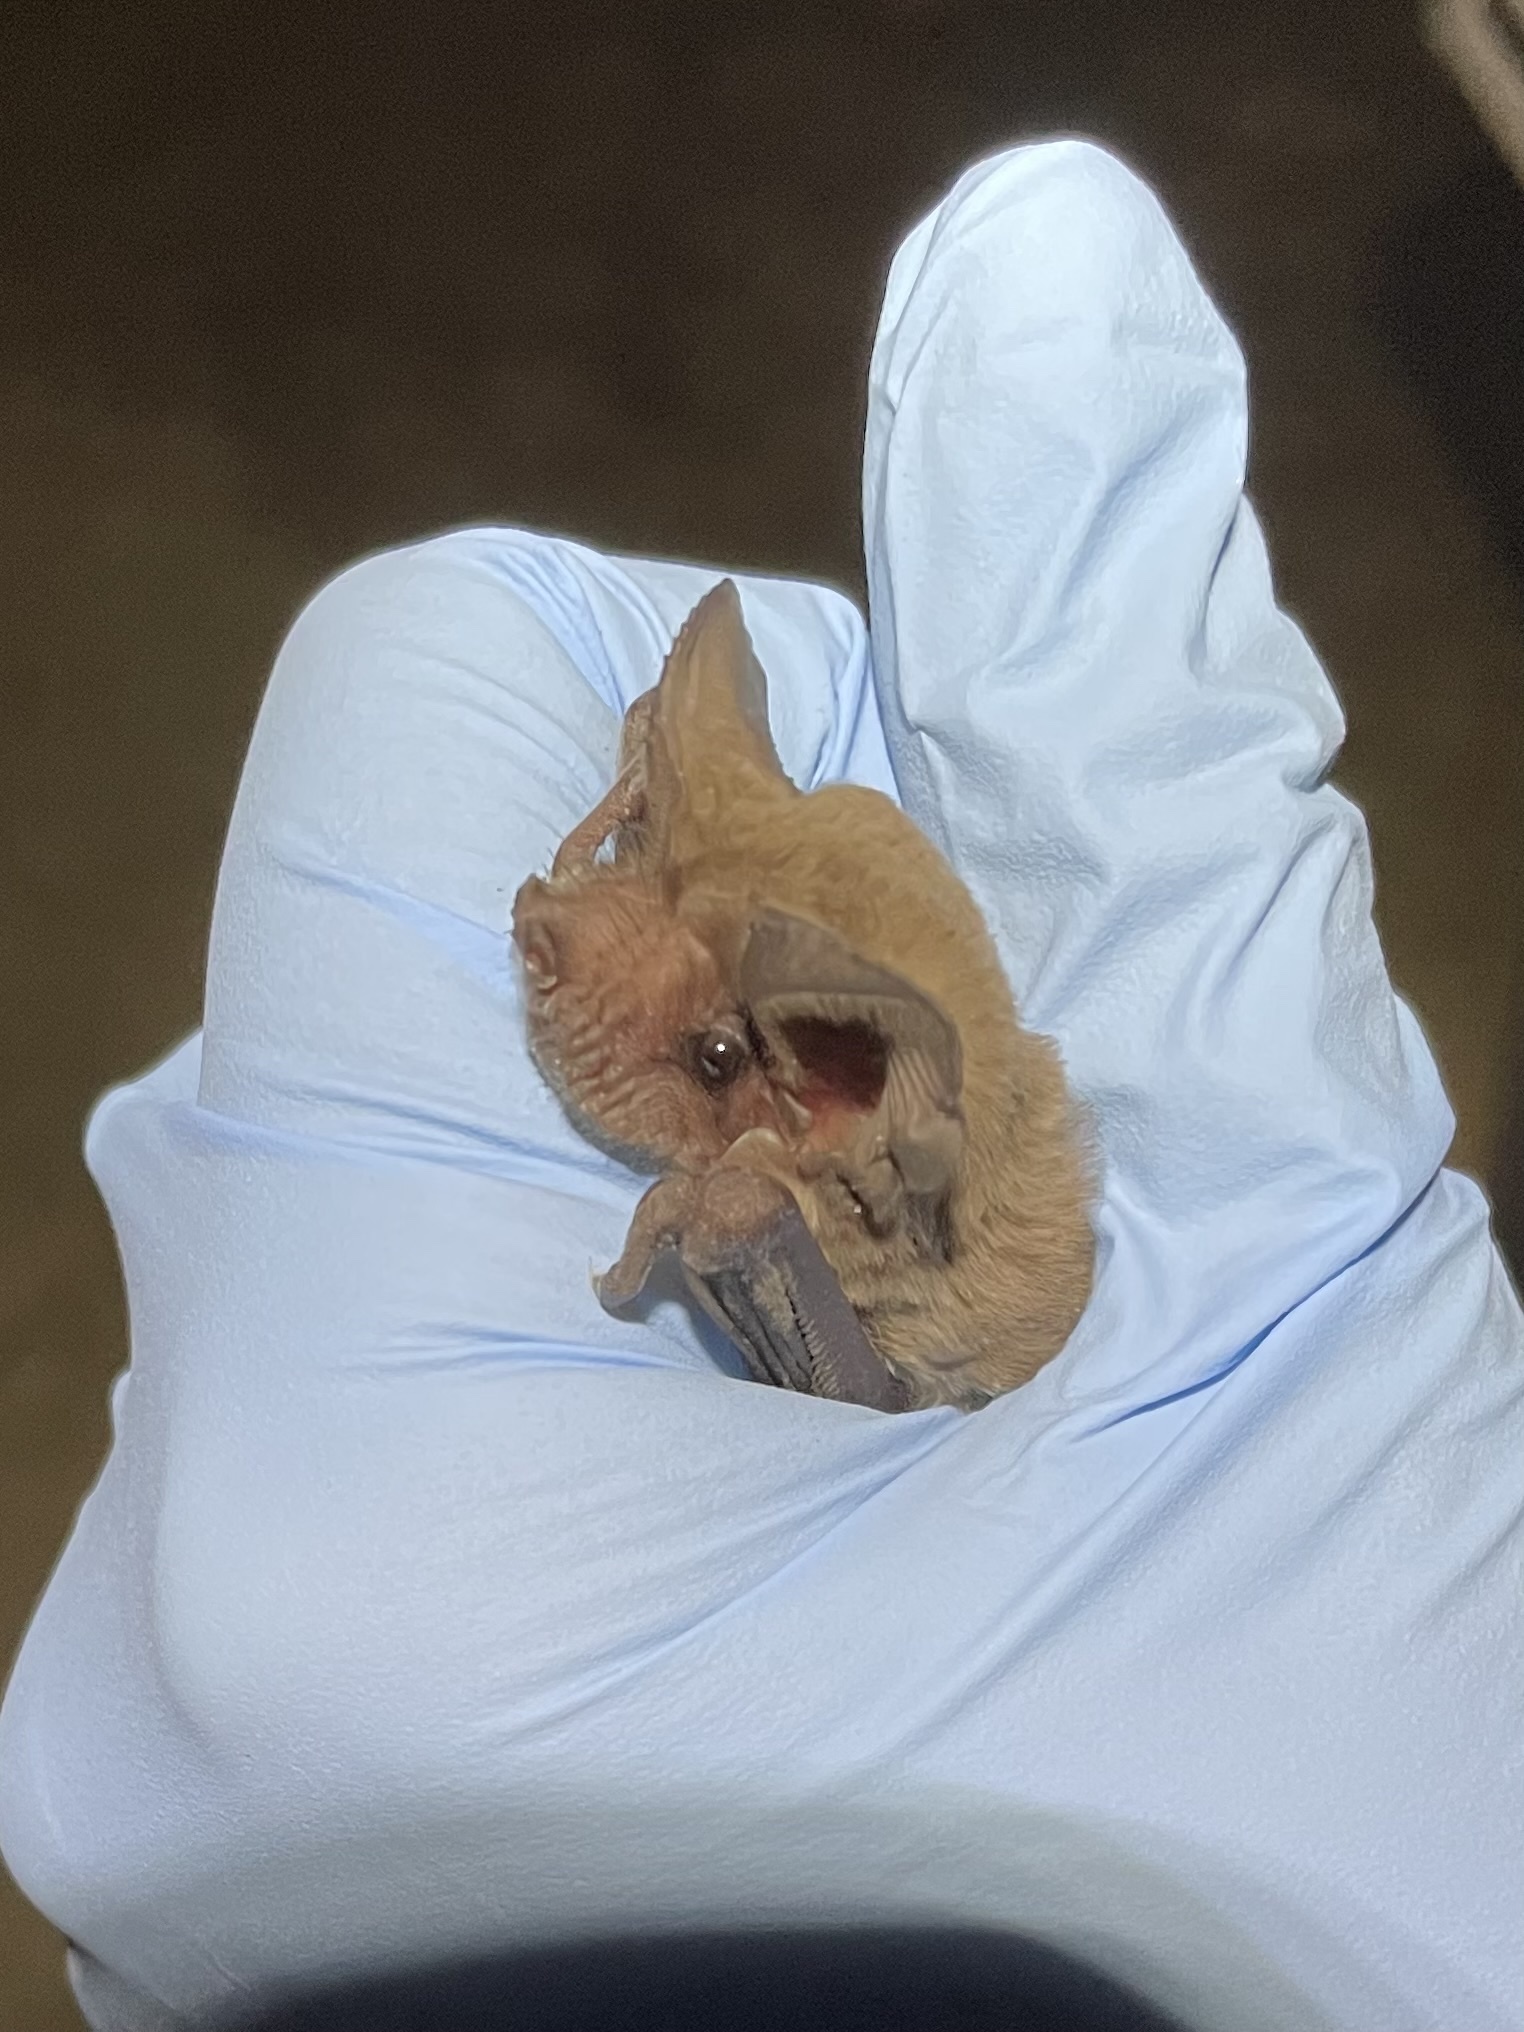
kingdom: Animalia
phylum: Chordata
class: Mammalia
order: Chiroptera
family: Molossidae
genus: Tadarida
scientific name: Tadarida brasiliensis
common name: Mexican free-tailed bat
